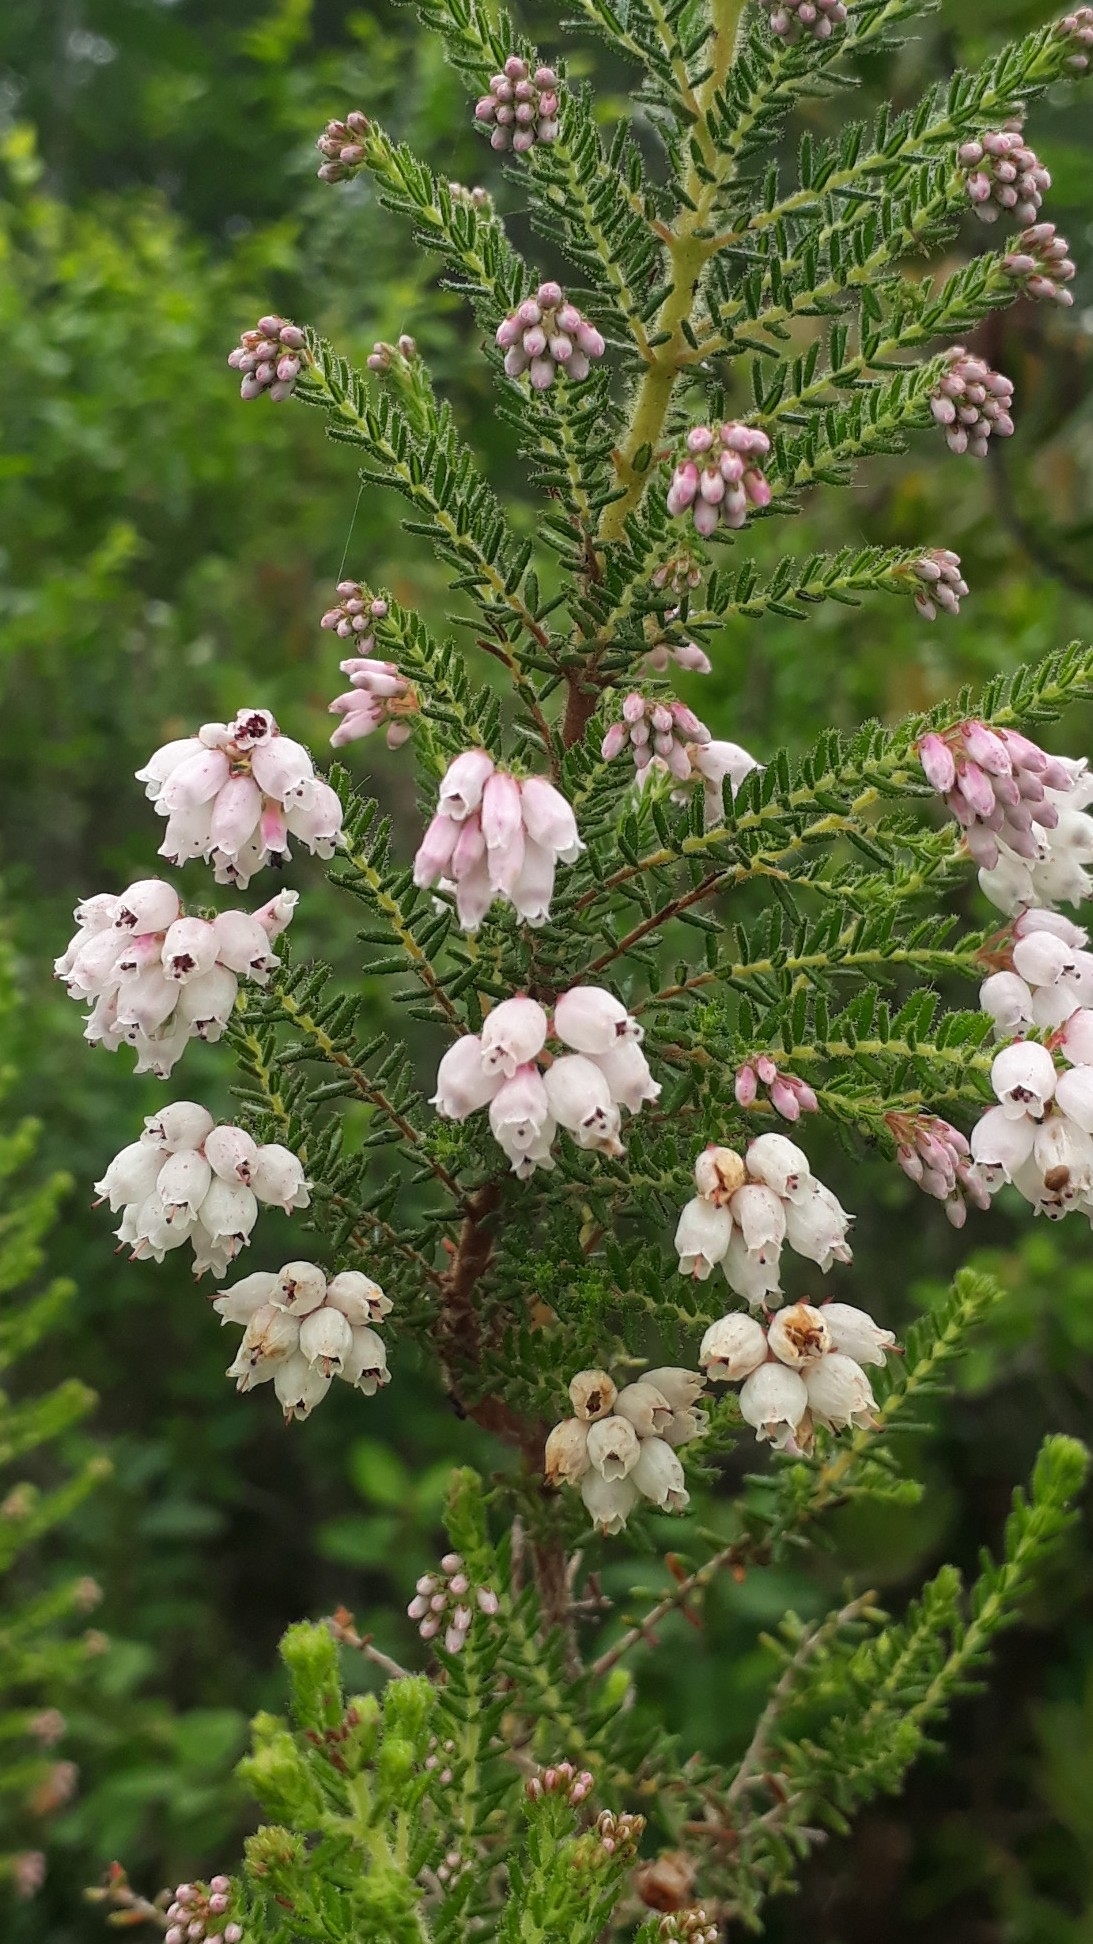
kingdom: Plantae
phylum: Tracheophyta
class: Magnoliopsida
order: Ericales
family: Ericaceae
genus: Erica
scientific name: Erica scabriuscula
